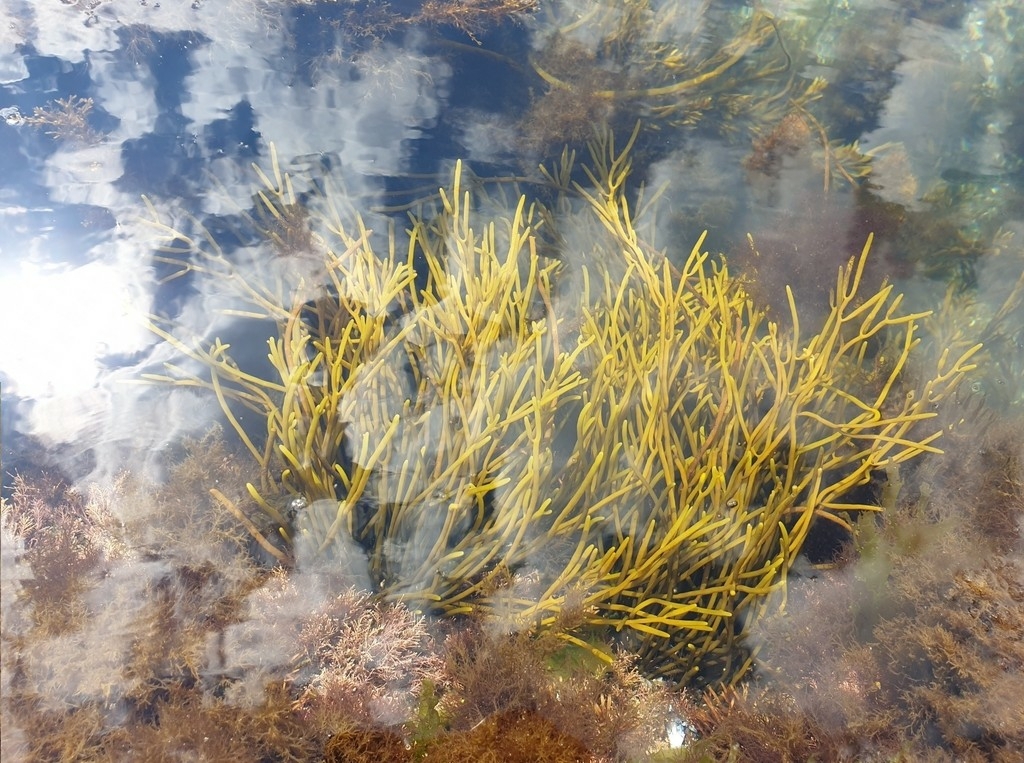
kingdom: Chromista
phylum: Ochrophyta
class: Phaeophyceae
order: Fucales
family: Sargassaceae
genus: Bifurcaria
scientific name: Bifurcaria bifurcata
